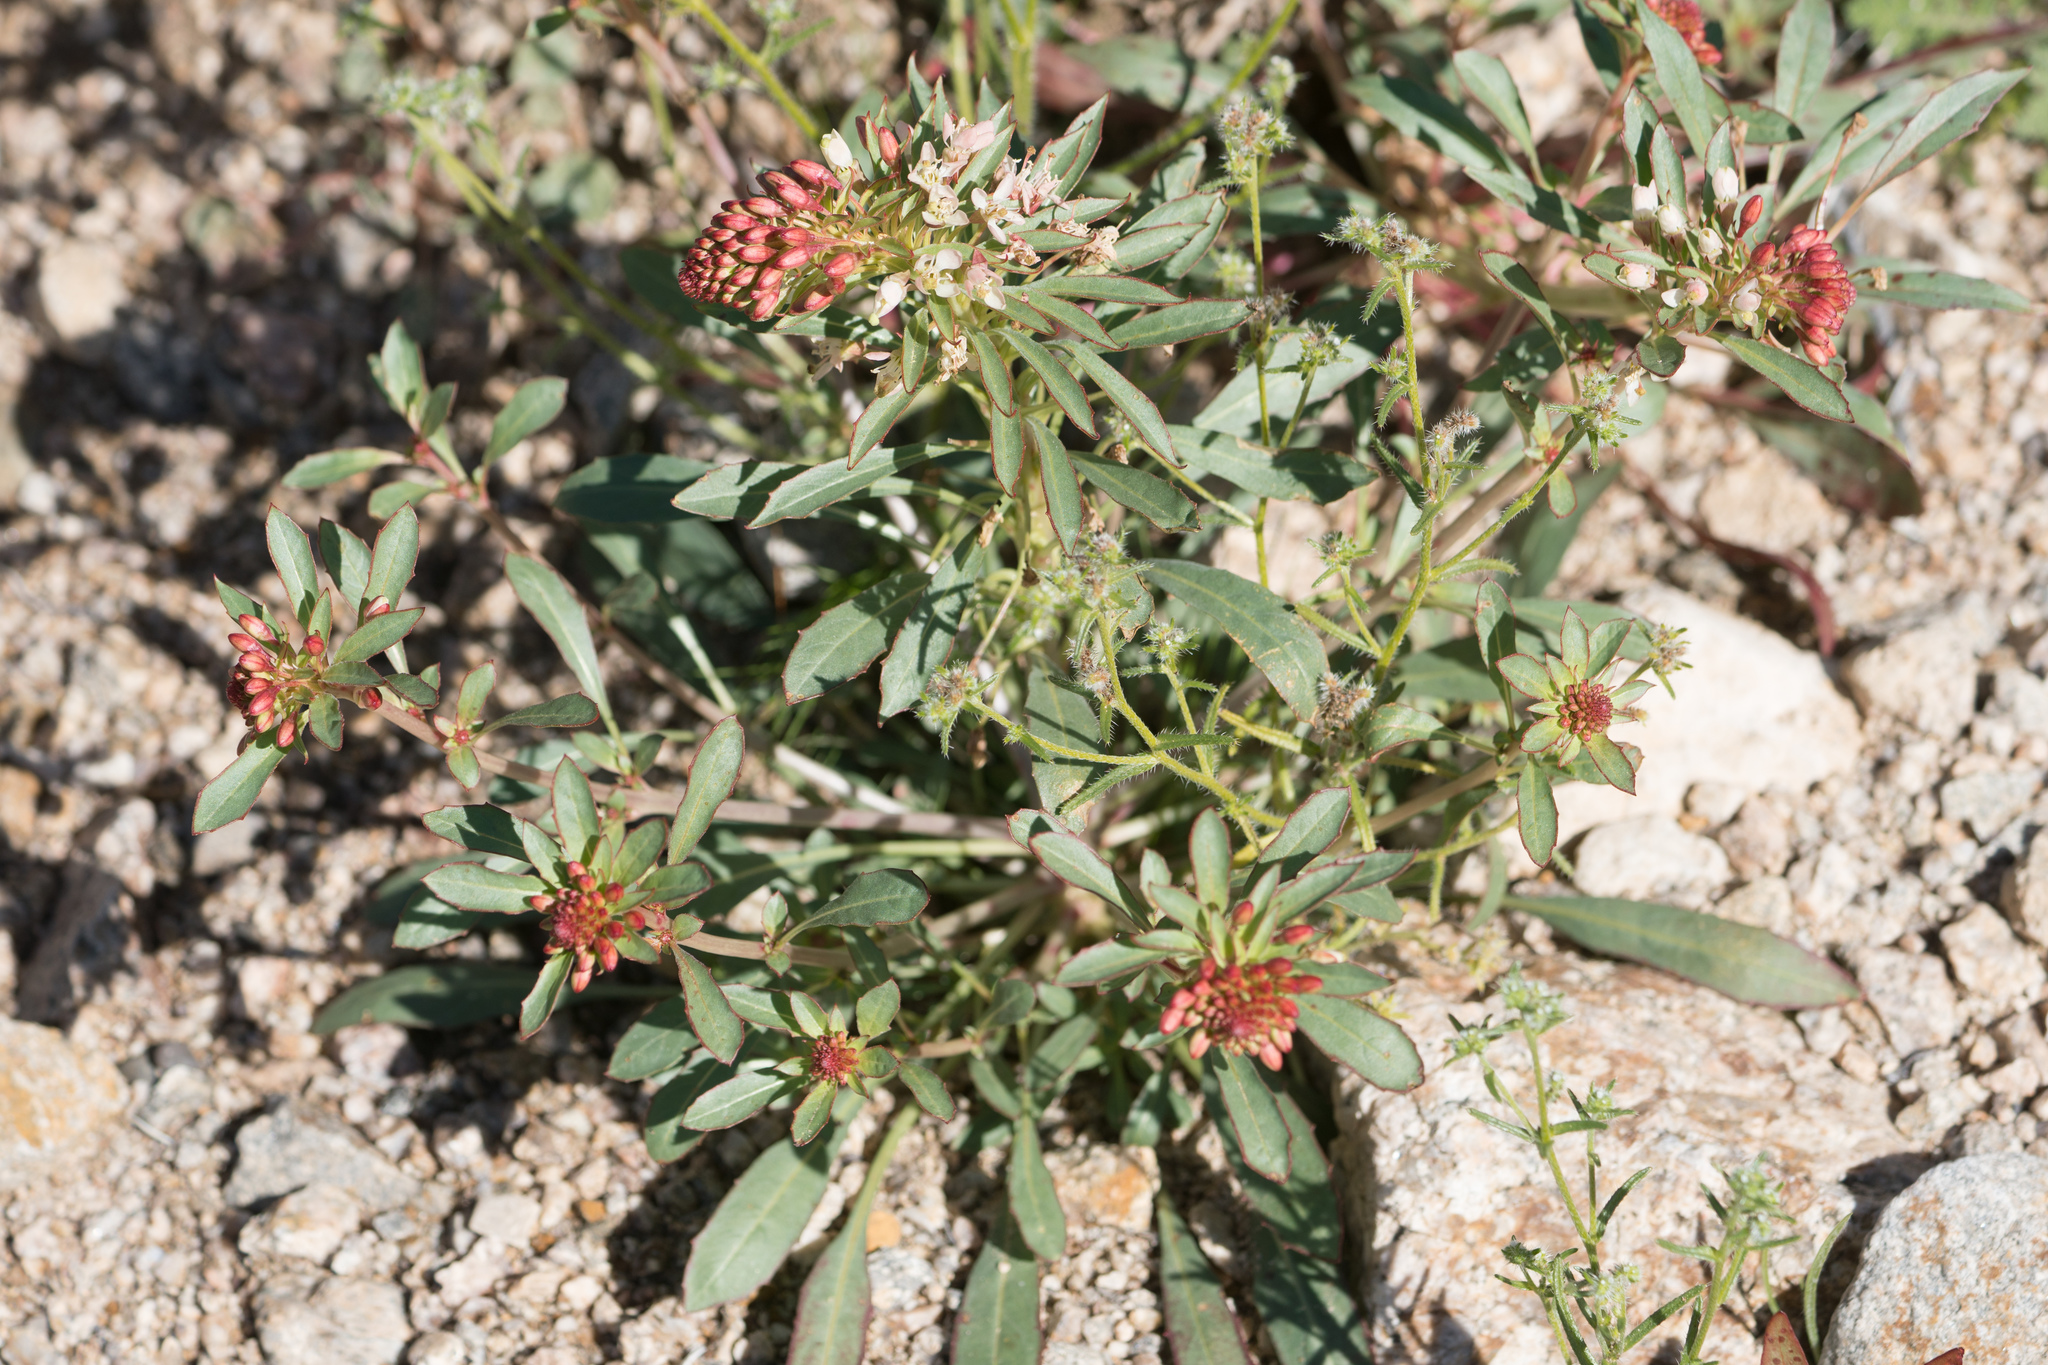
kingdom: Plantae
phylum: Tracheophyta
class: Magnoliopsida
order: Myrtales
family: Onagraceae
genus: Eremothera
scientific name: Eremothera boothii
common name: Booth's evening primrose
